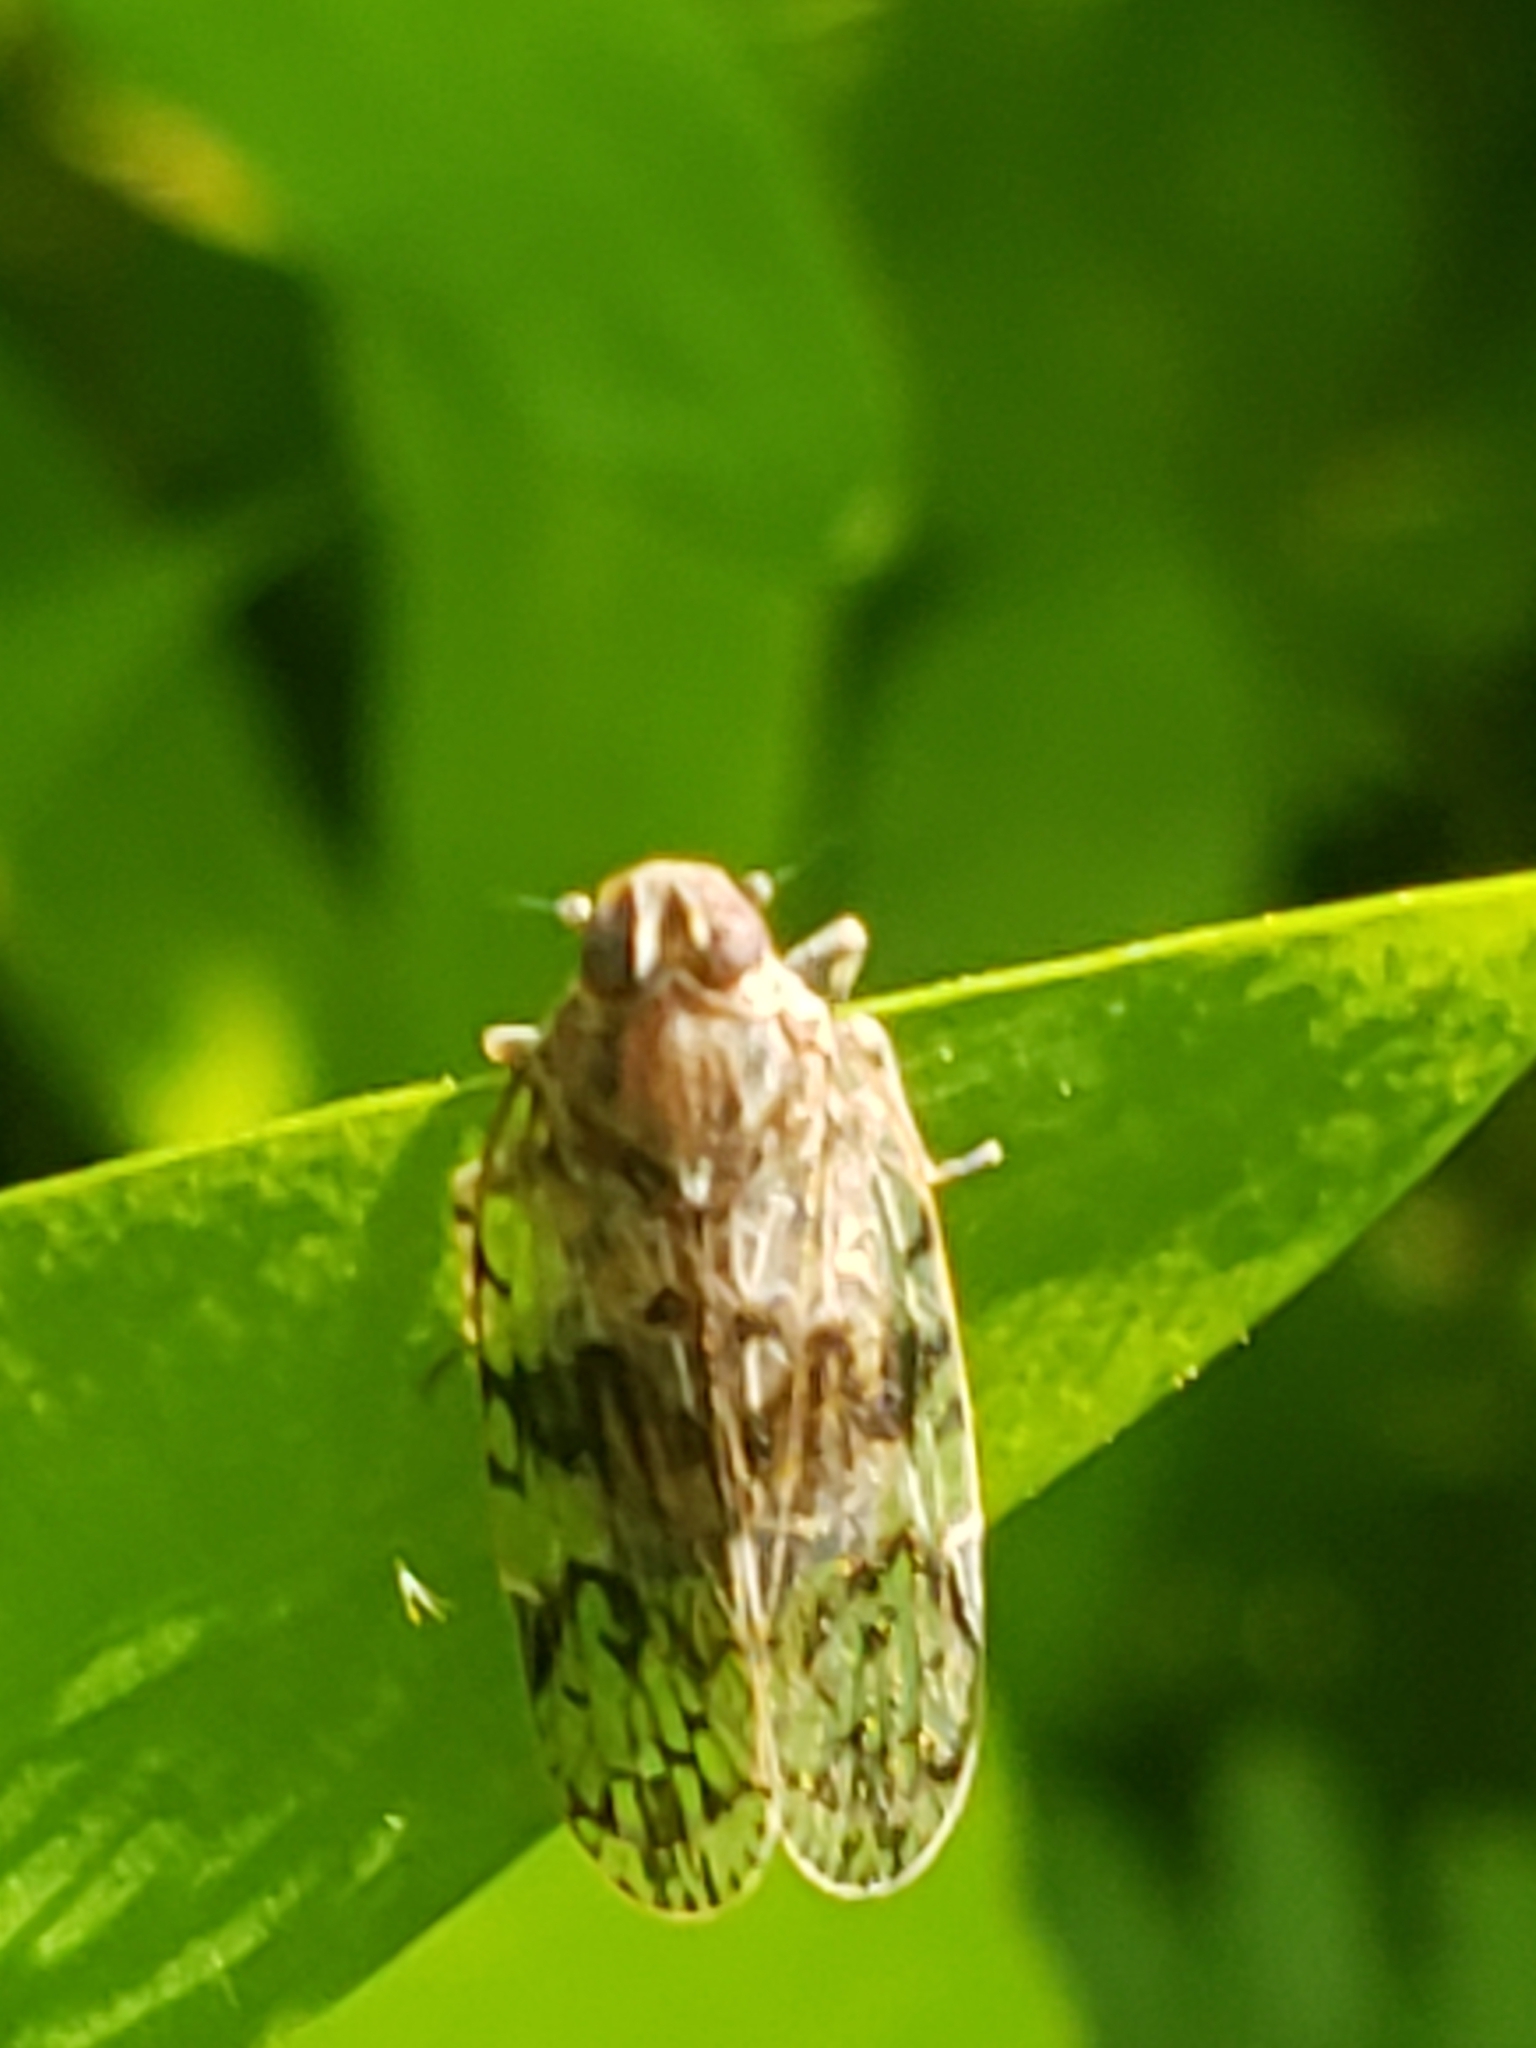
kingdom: Animalia
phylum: Arthropoda
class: Insecta
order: Hemiptera
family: Cixiidae
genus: Melanoliarus
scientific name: Melanoliarus placitus
